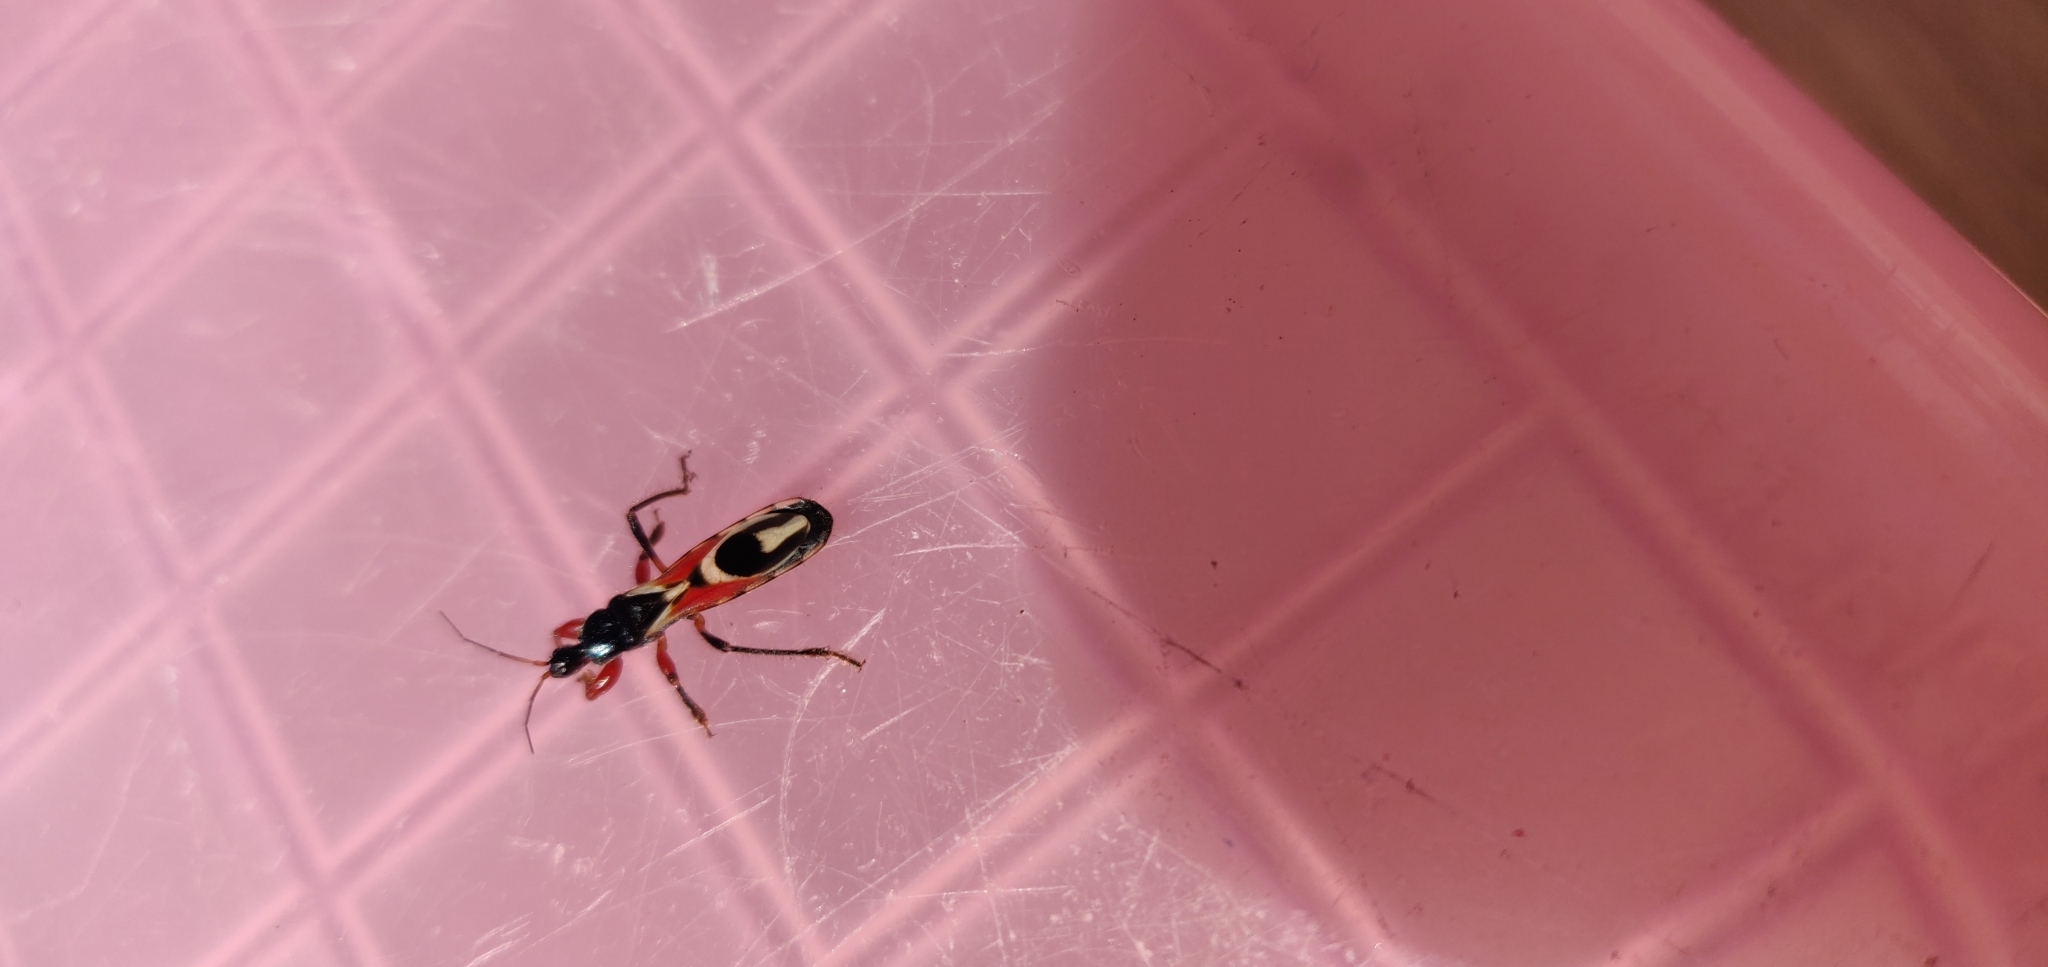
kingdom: Animalia
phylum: Arthropoda
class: Insecta
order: Hemiptera
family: Reduviidae
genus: Phorastes
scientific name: Phorastes femoratus
